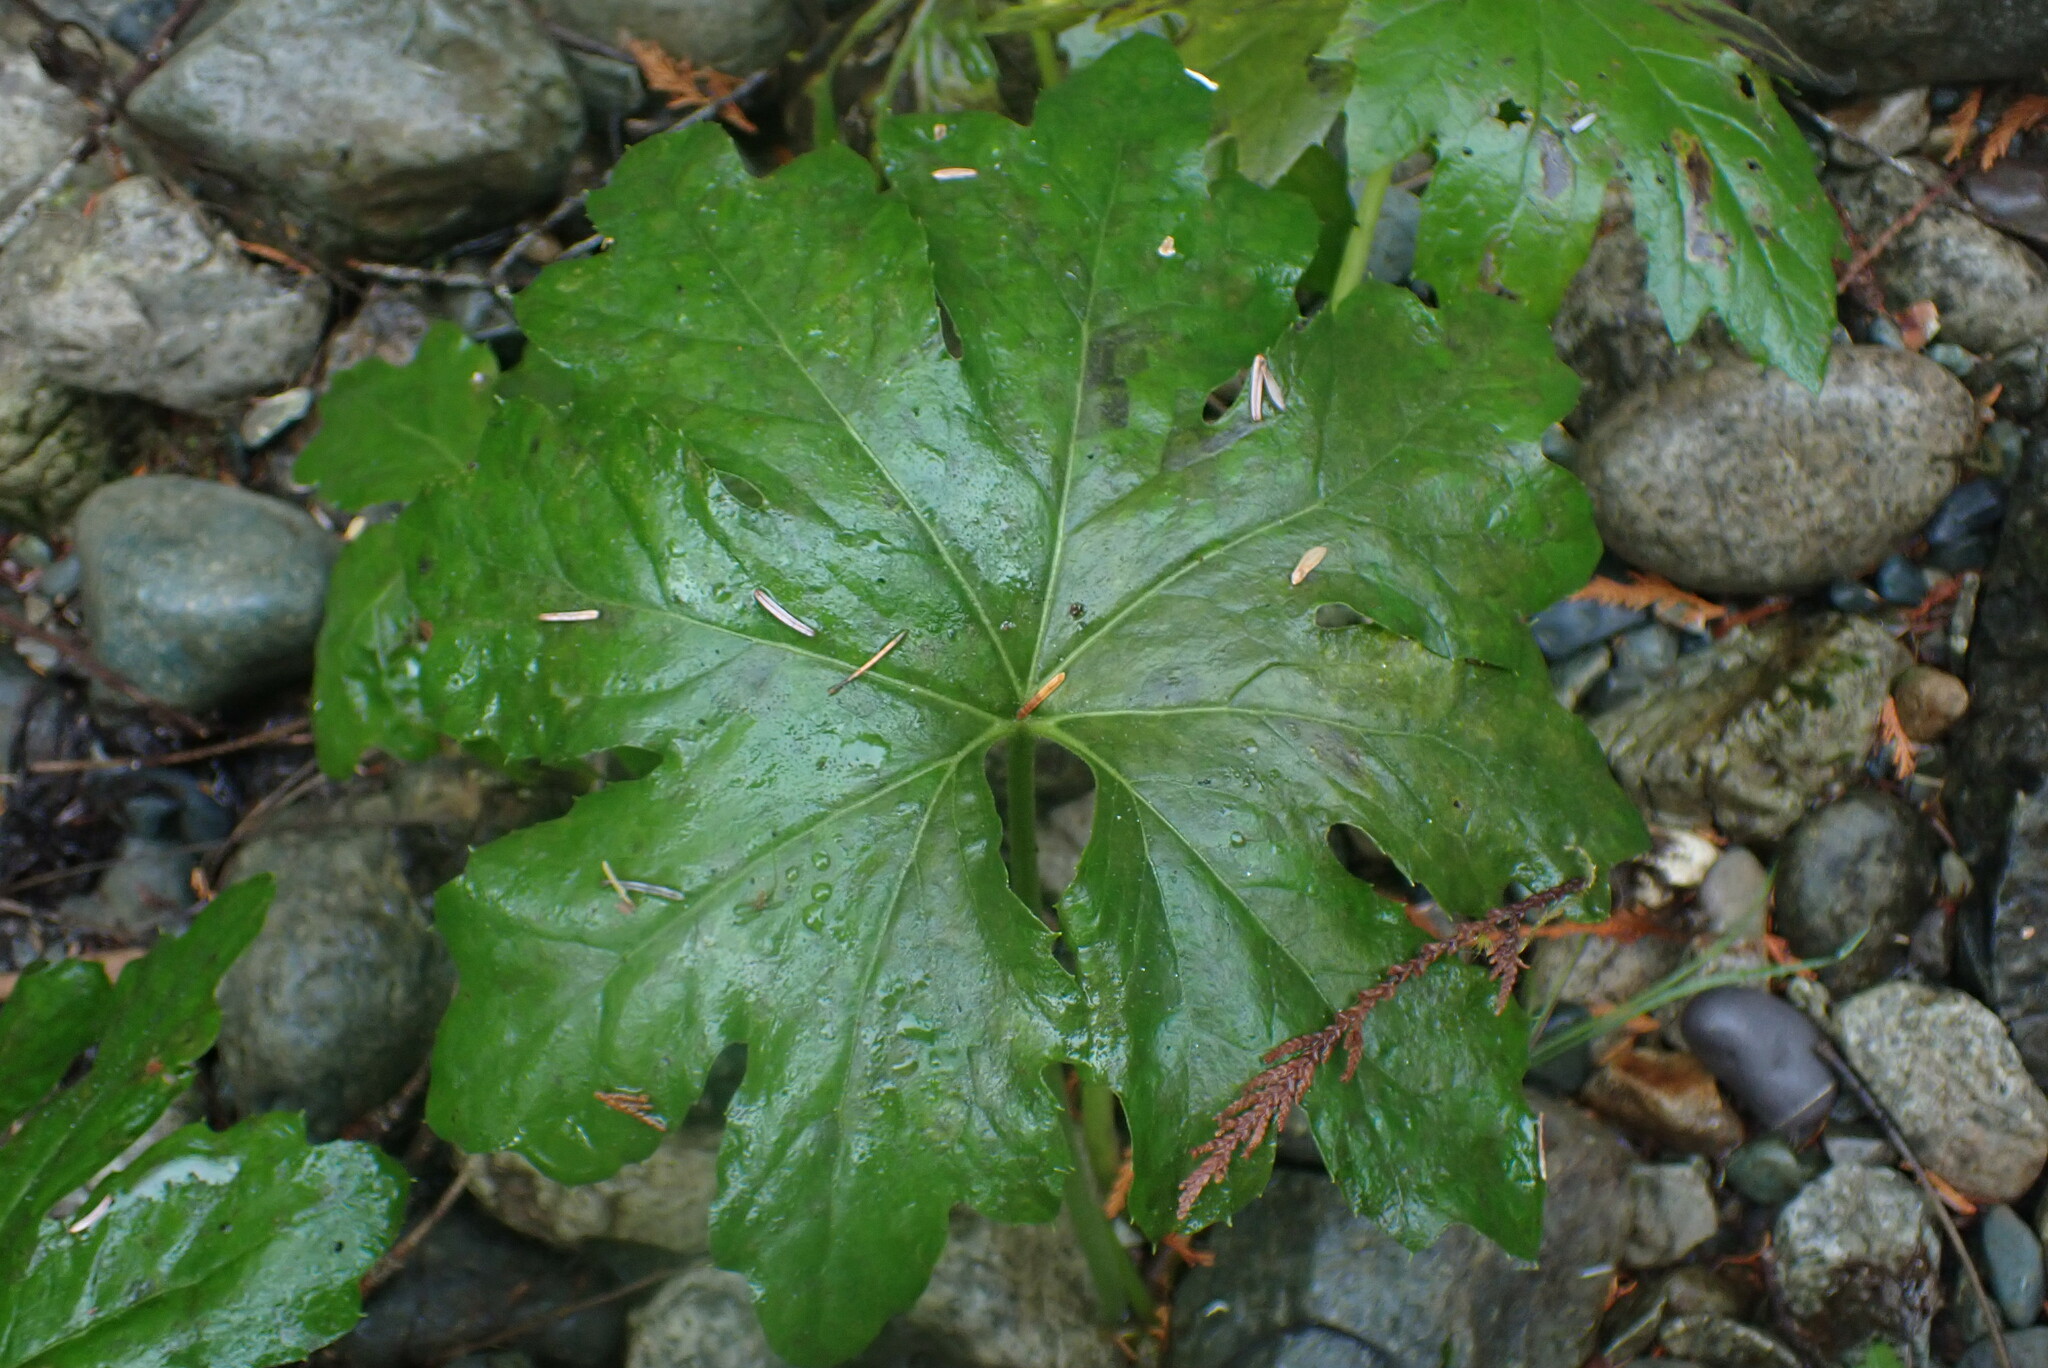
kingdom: Plantae
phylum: Tracheophyta
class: Magnoliopsida
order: Asterales
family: Asteraceae
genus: Petasites
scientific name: Petasites frigidus
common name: Arctic butterbur
